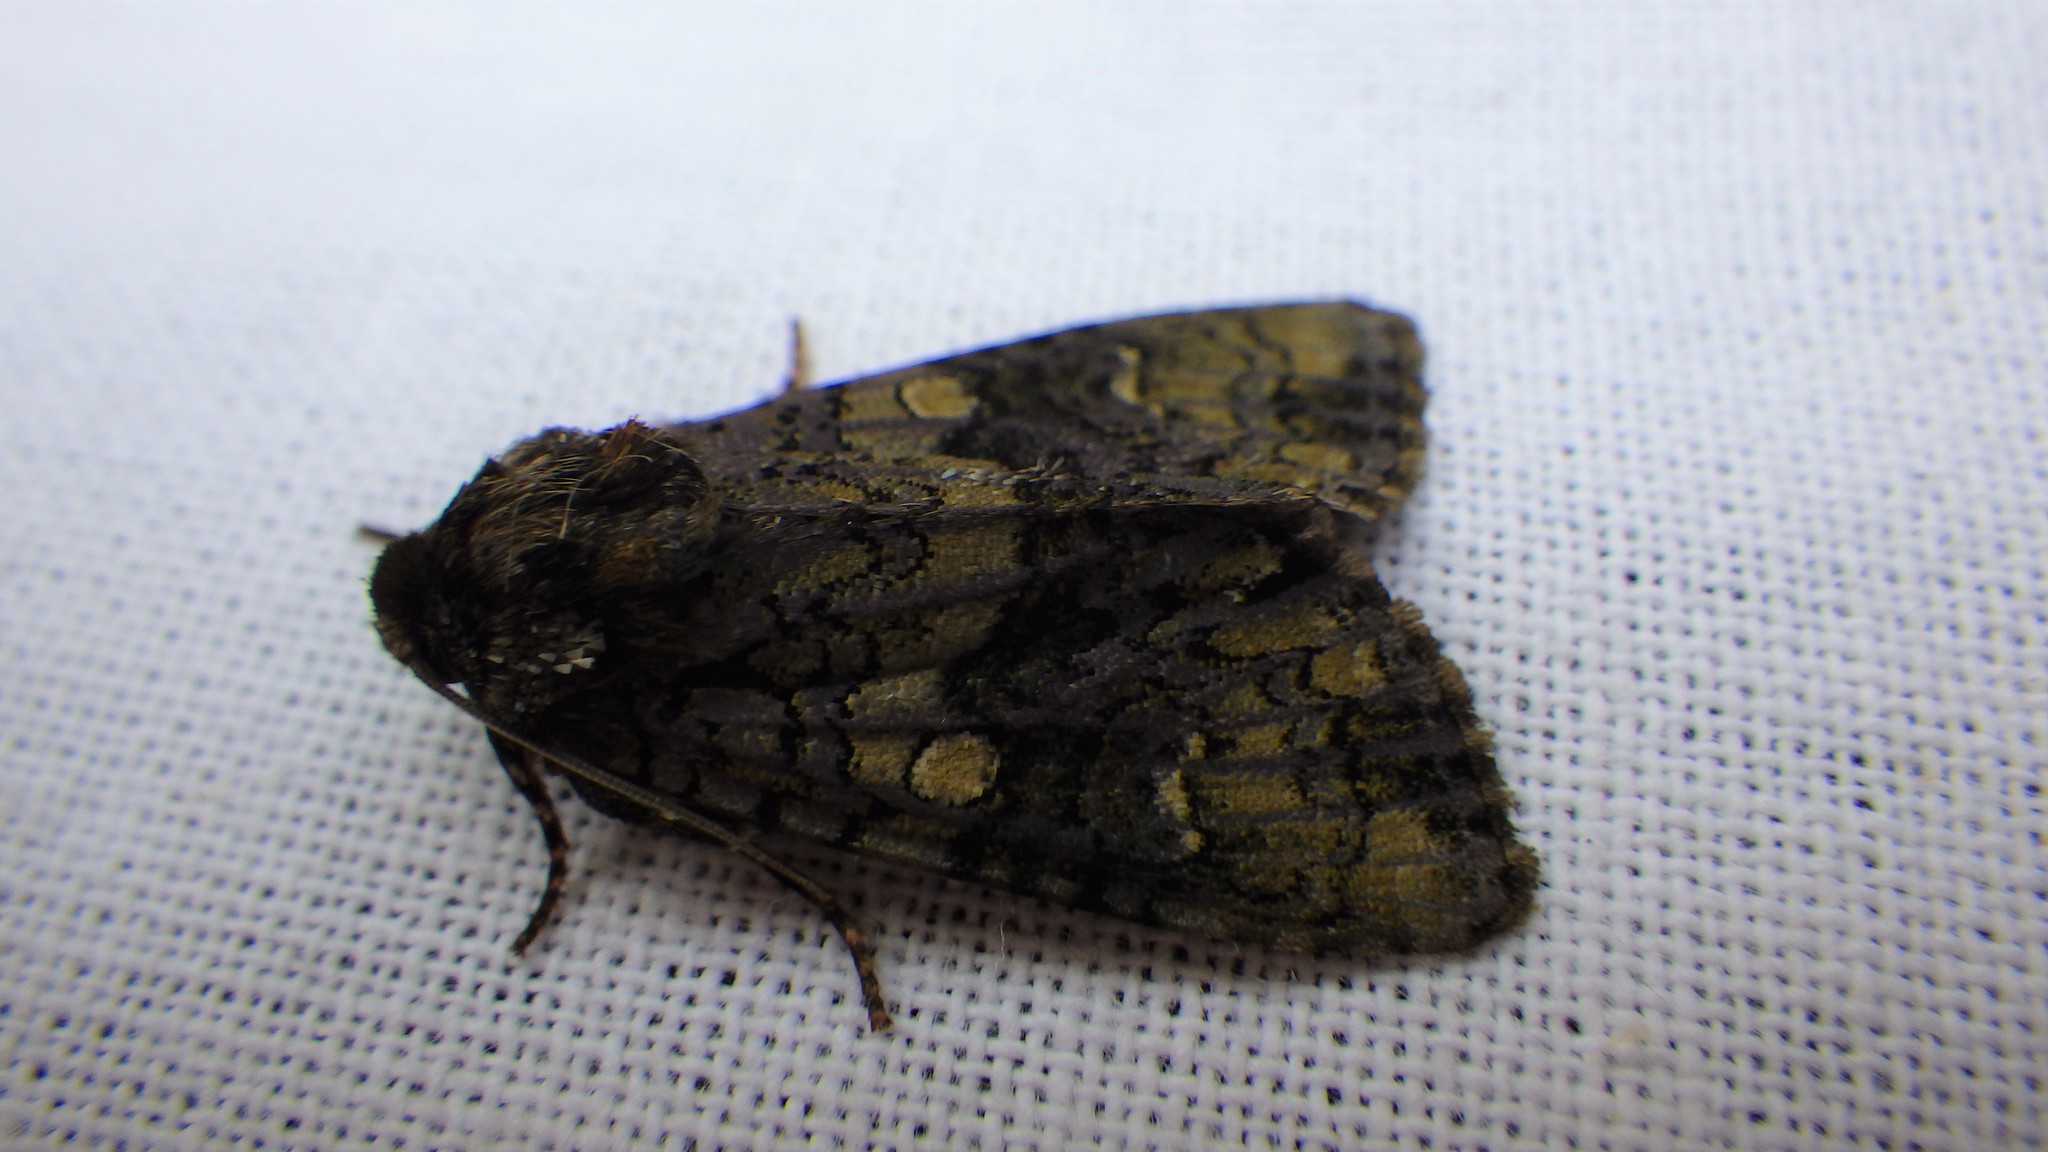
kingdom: Animalia
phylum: Arthropoda
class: Insecta
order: Lepidoptera
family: Noctuidae
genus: Craniophora
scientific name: Craniophora ligustri
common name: Coronet
